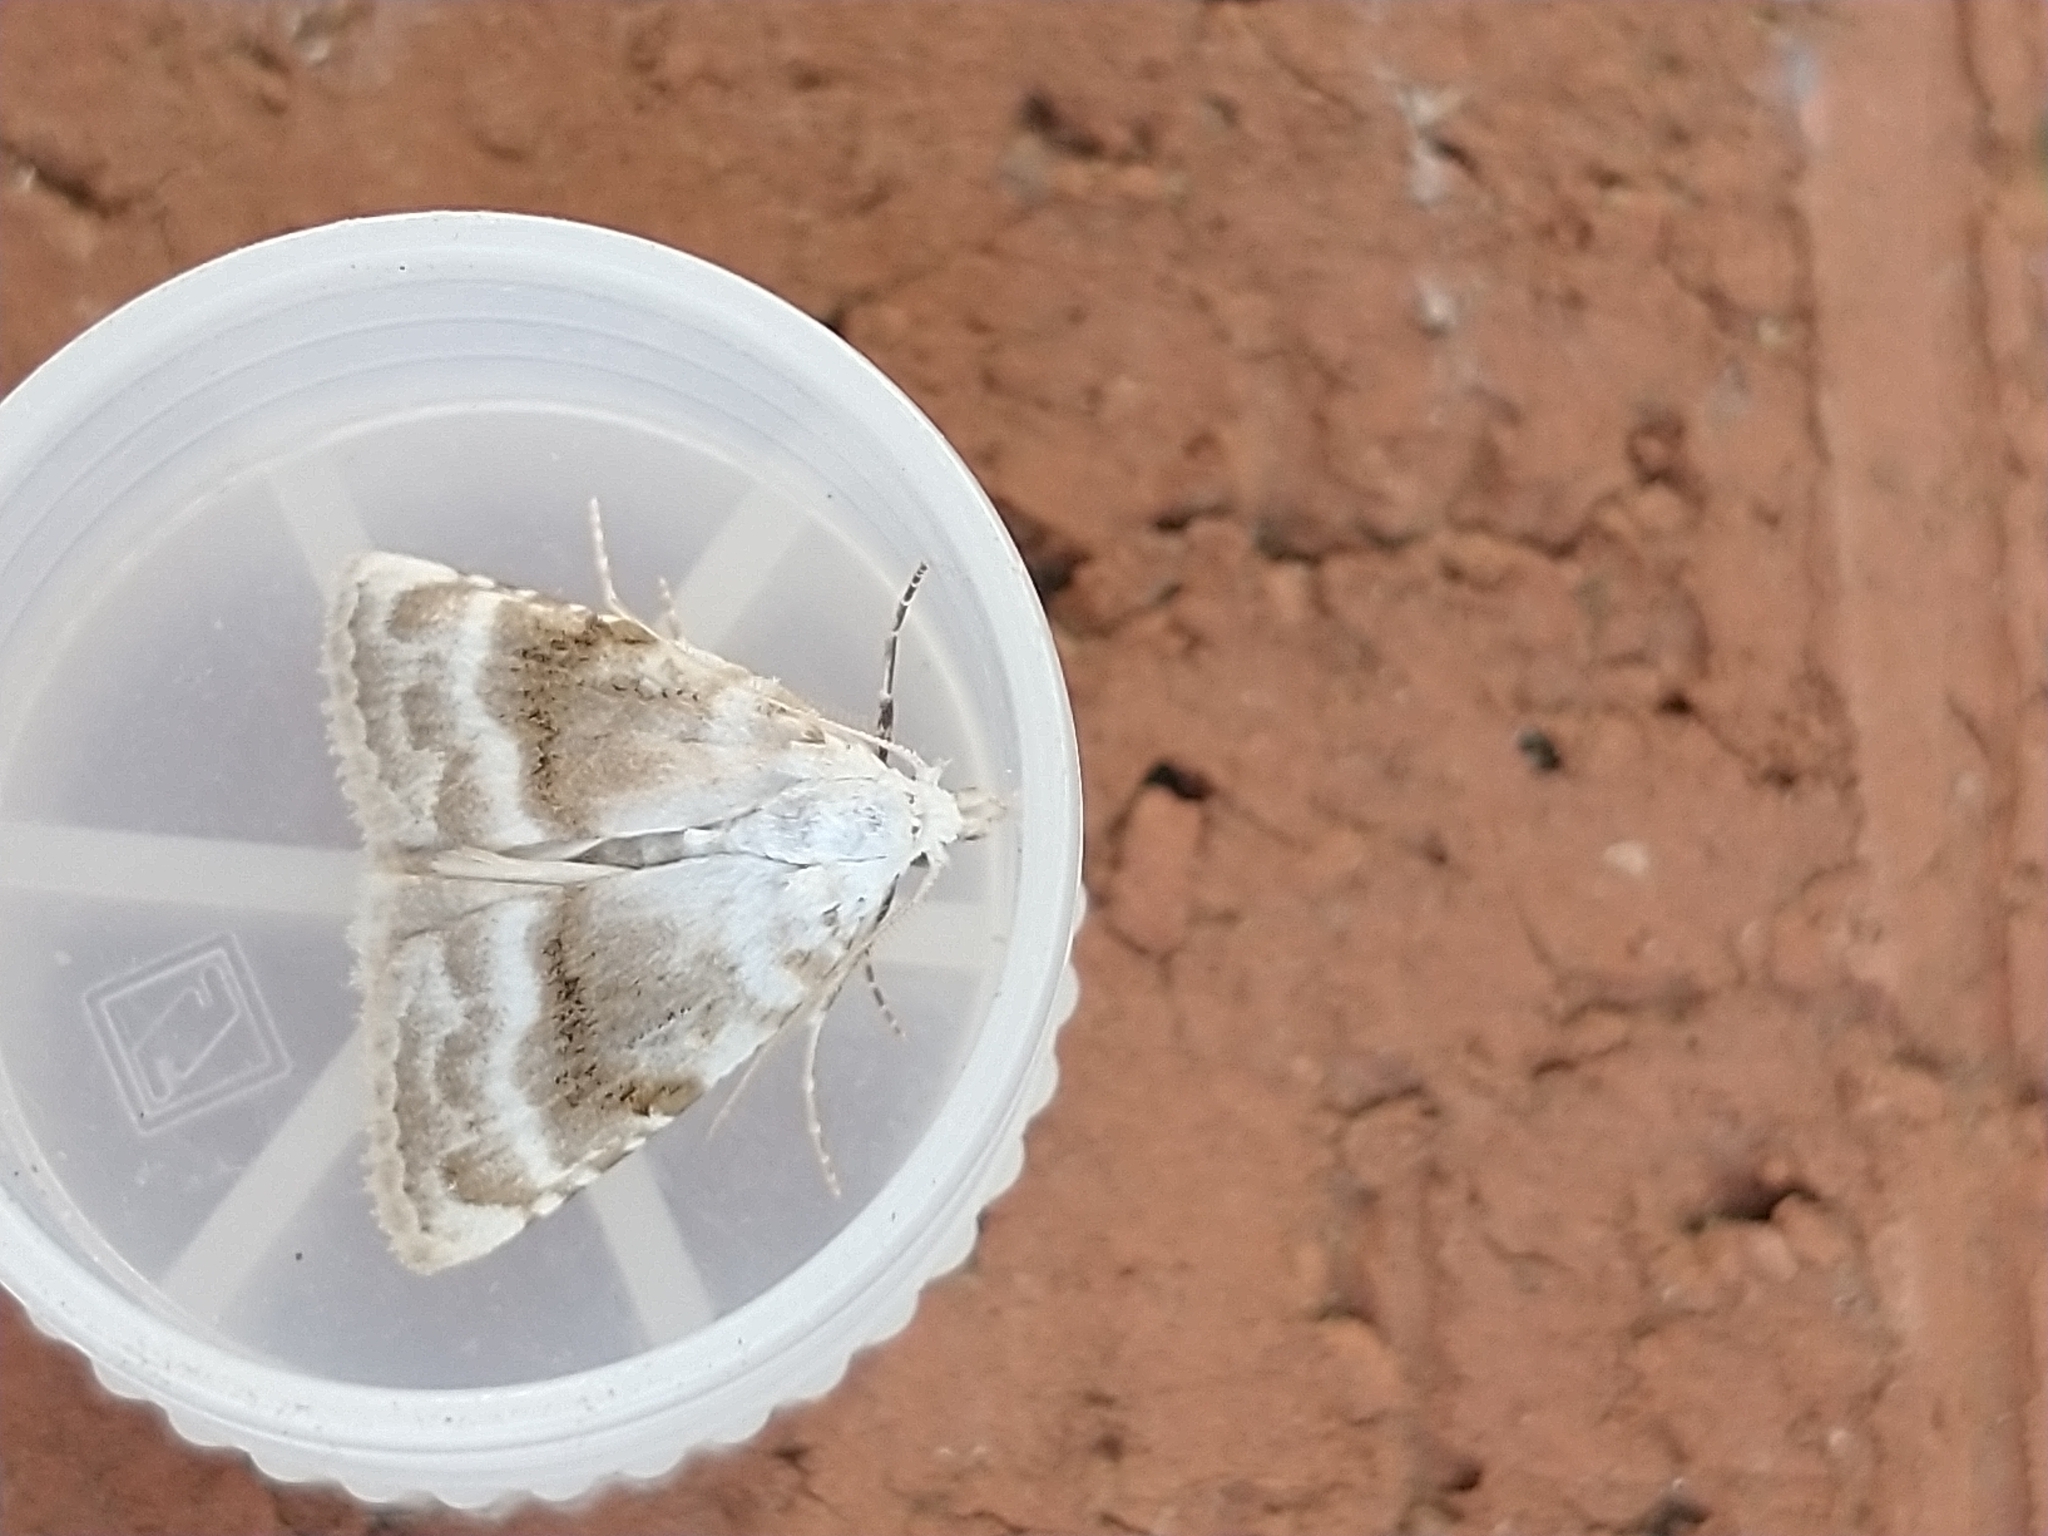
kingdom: Animalia
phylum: Arthropoda
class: Insecta
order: Lepidoptera
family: Nolidae
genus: Meganola
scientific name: Meganola albula
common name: Kent black arches
